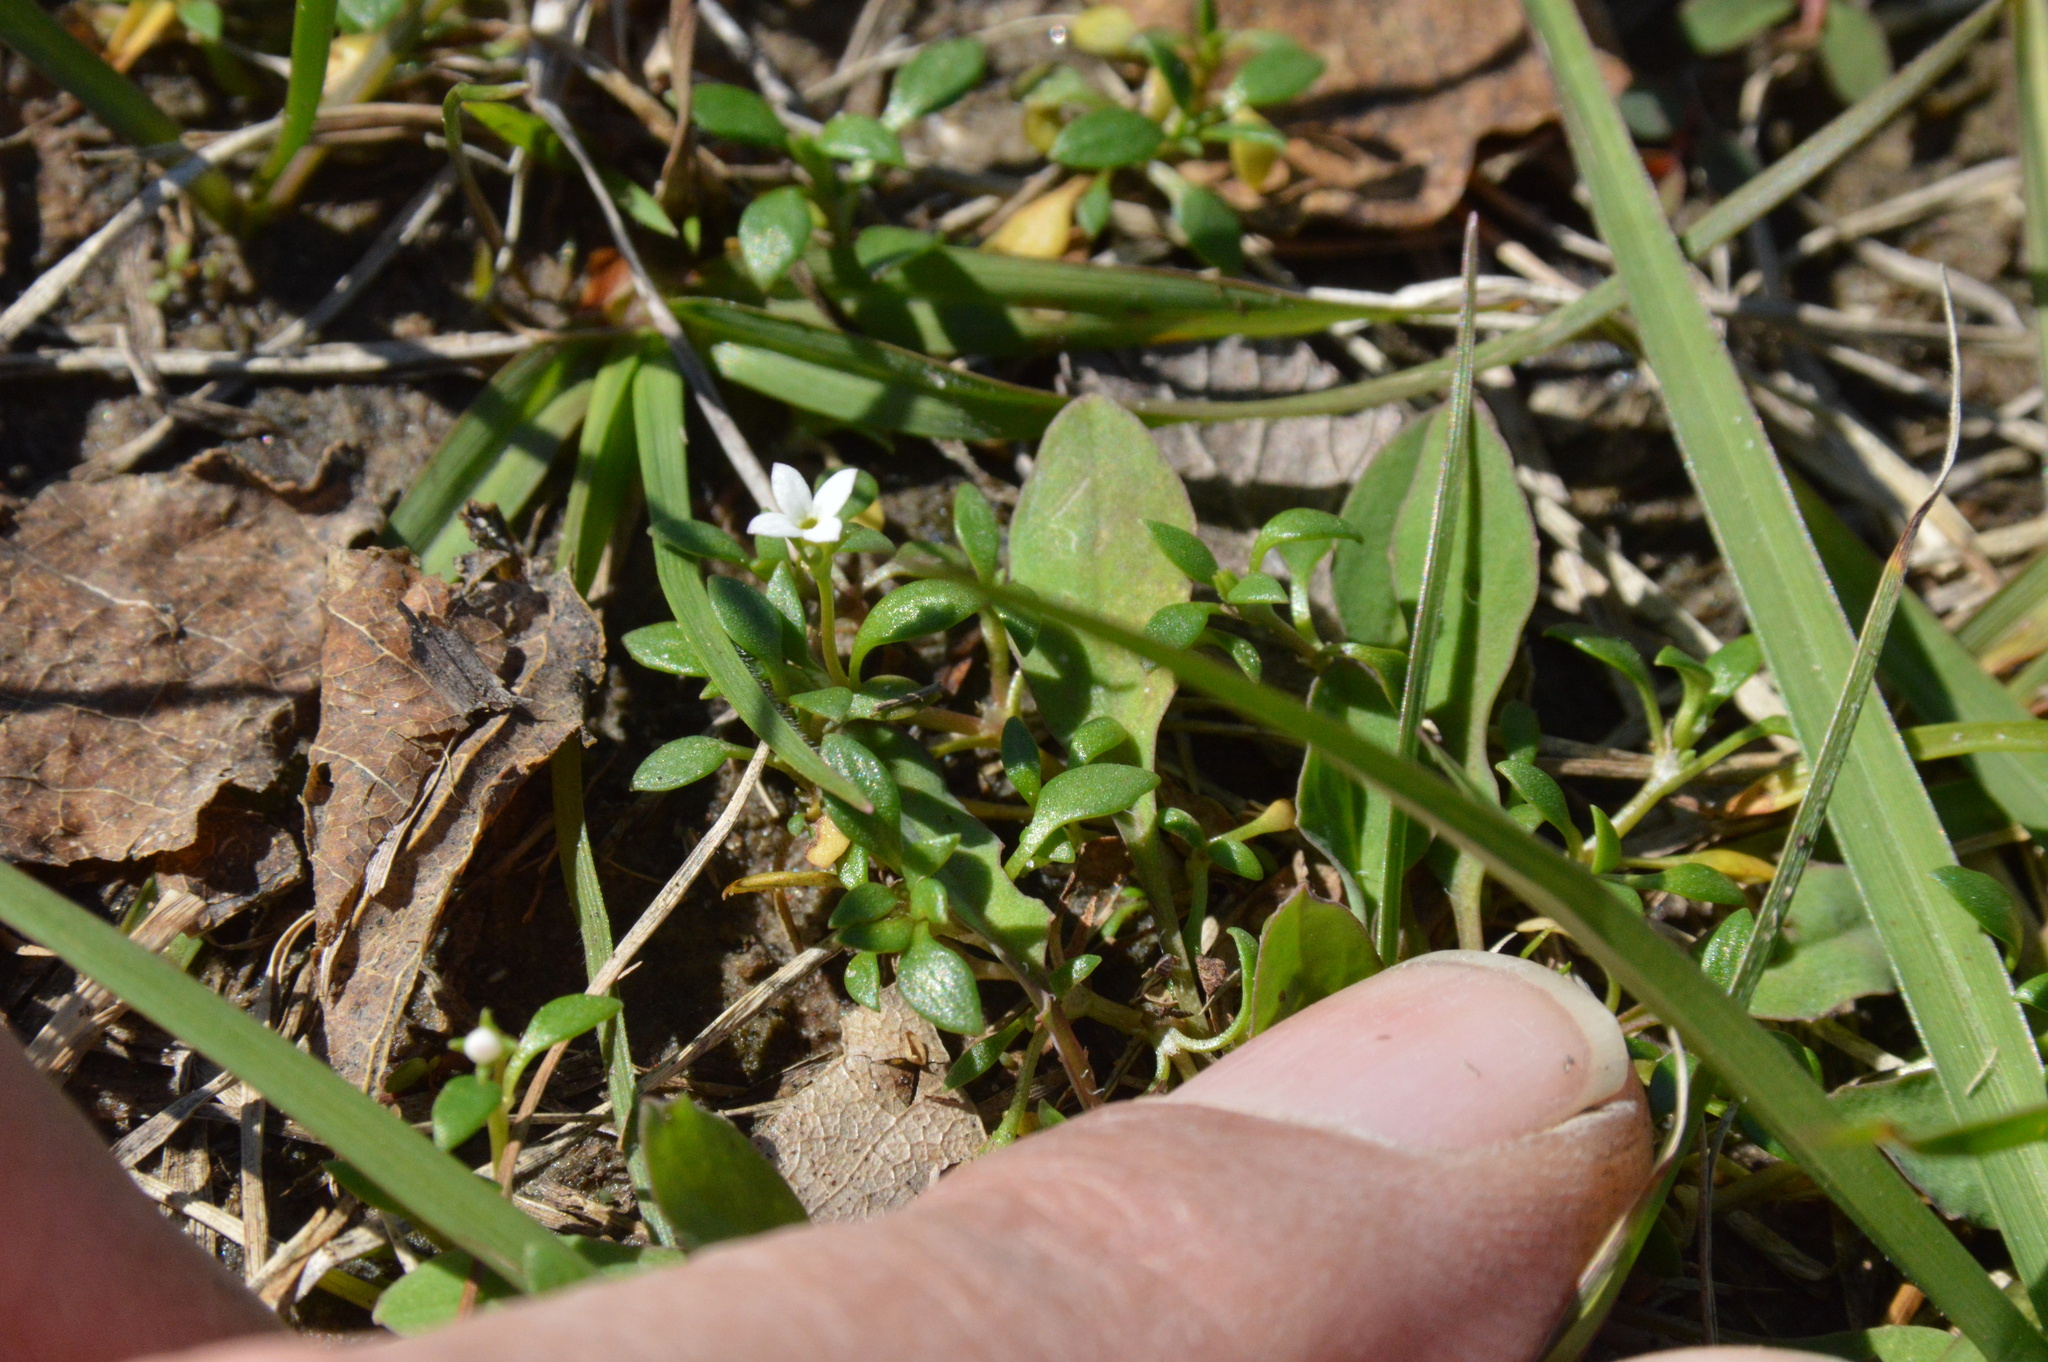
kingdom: Plantae
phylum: Tracheophyta
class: Magnoliopsida
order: Gentianales
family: Rubiaceae
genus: Houstonia
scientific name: Houstonia micrantha
